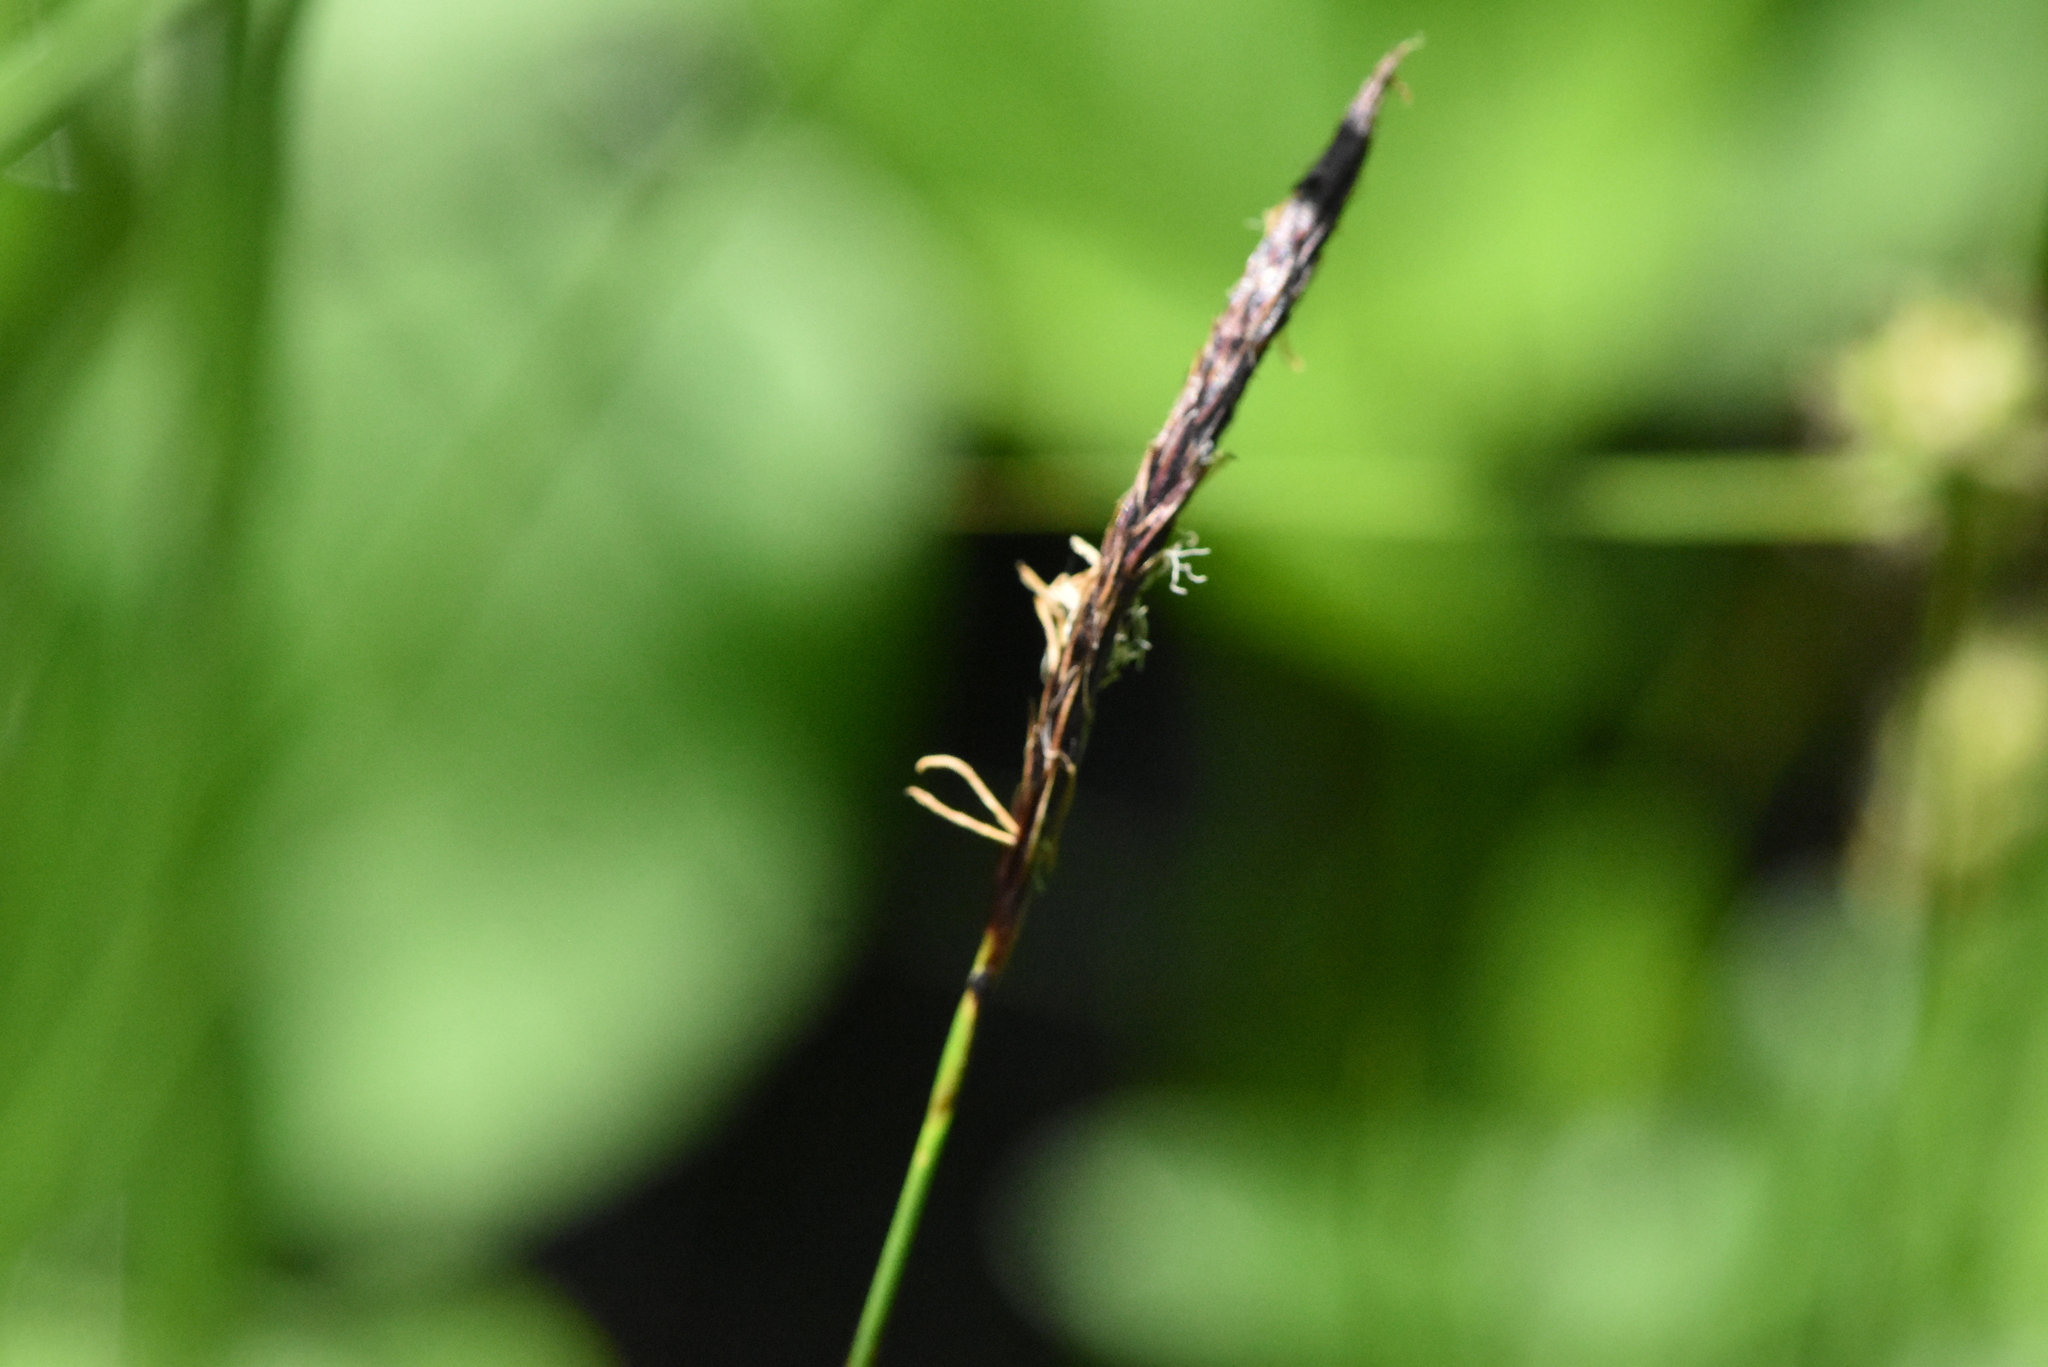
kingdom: Plantae
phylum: Tracheophyta
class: Liliopsida
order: Poales
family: Cyperaceae
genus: Carex
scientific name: Carex lasiocarpa
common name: Slender sedge
